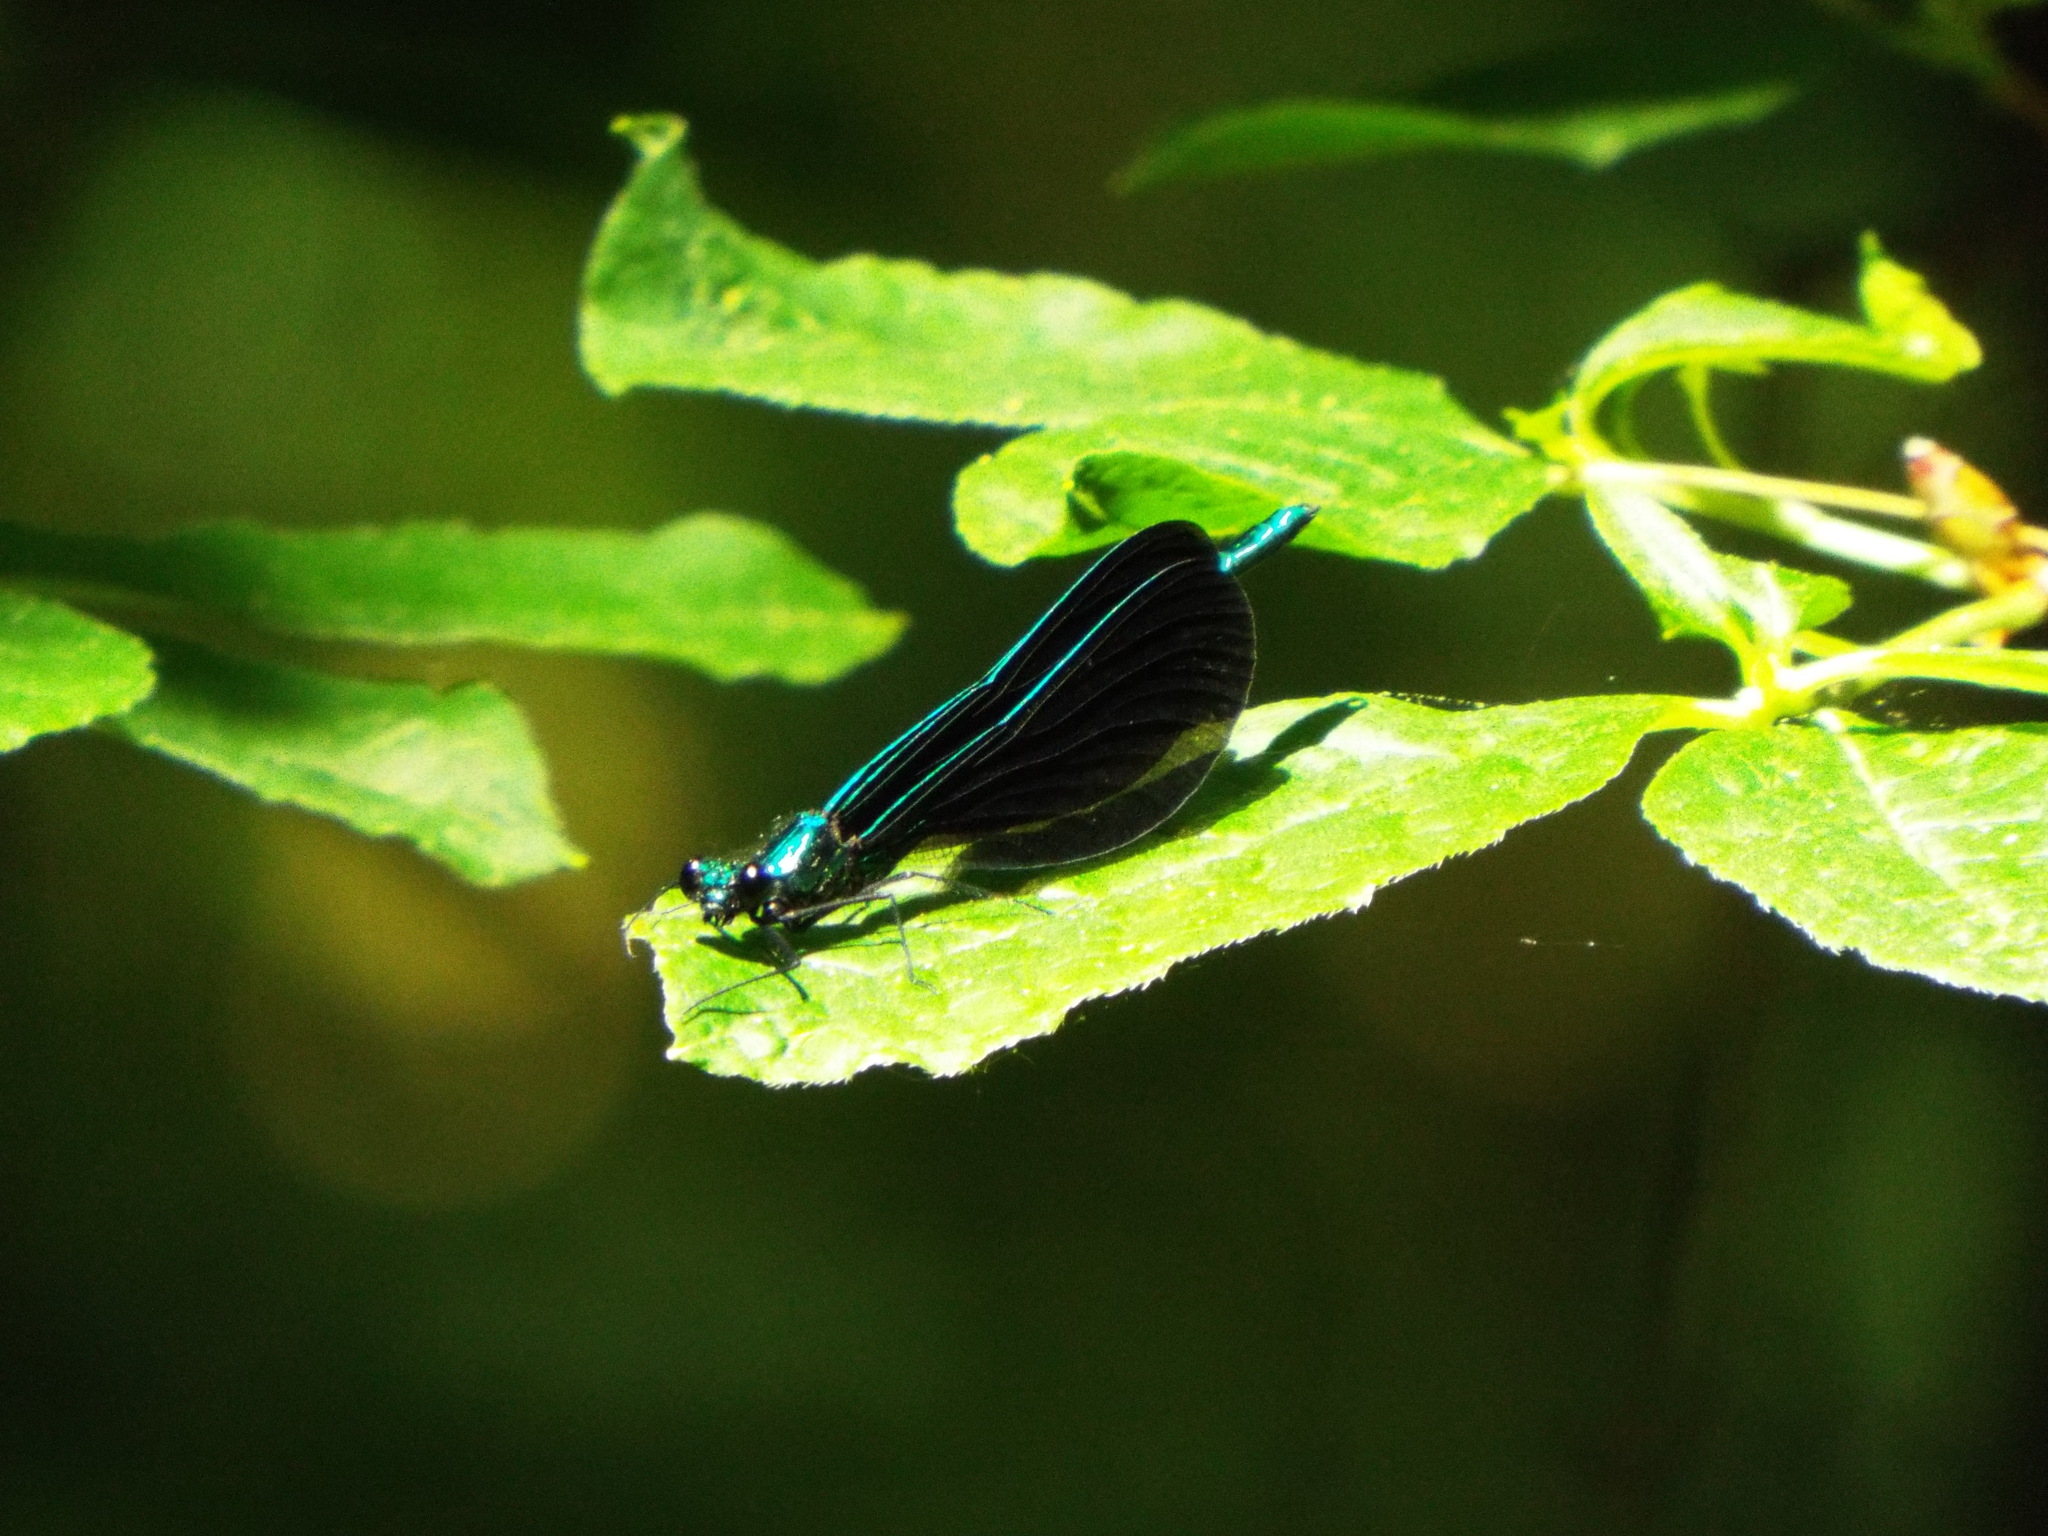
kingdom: Animalia
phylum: Arthropoda
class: Insecta
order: Odonata
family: Calopterygidae
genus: Calopteryx
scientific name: Calopteryx maculata
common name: Ebony jewelwing
